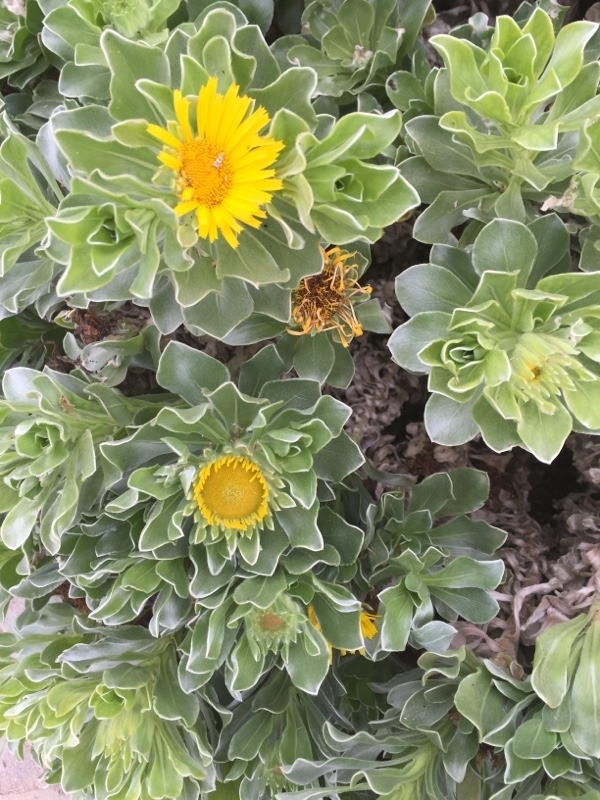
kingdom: Plantae
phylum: Tracheophyta
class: Magnoliopsida
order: Asterales
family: Asteraceae
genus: Asteriscus
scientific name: Asteriscus sericeus
